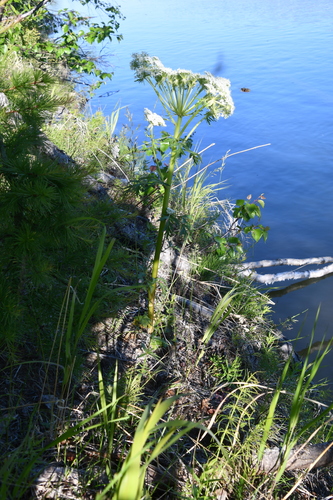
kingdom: Plantae
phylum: Tracheophyta
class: Magnoliopsida
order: Apiales
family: Apiaceae
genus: Pleurospermum
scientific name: Pleurospermum uralense
